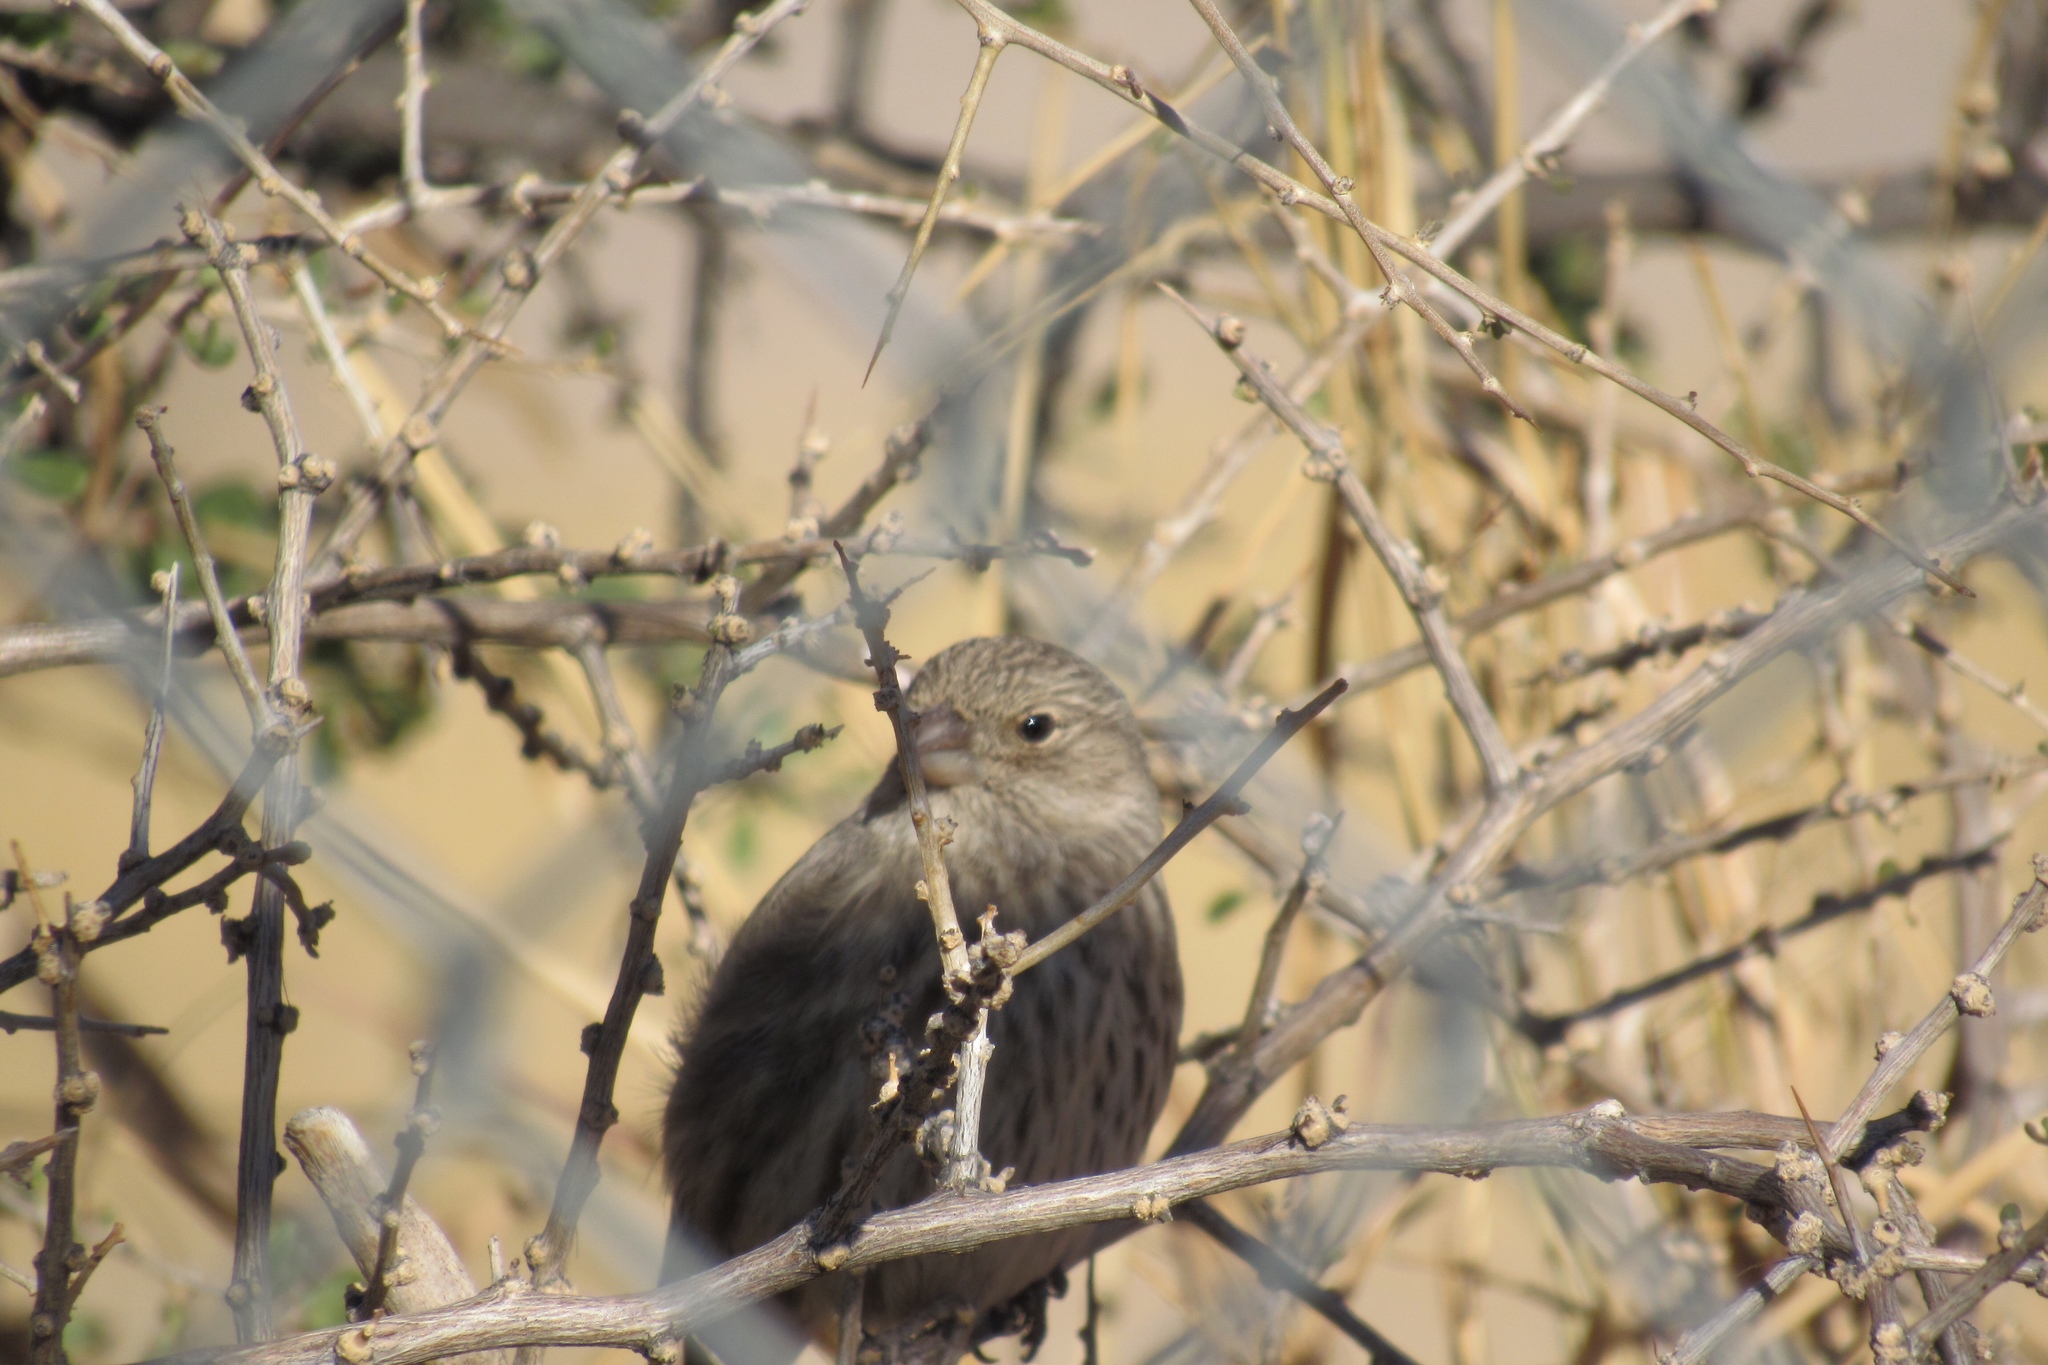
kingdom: Animalia
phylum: Chordata
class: Aves
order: Passeriformes
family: Fringillidae
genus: Haemorhous
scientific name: Haemorhous mexicanus
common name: House finch
